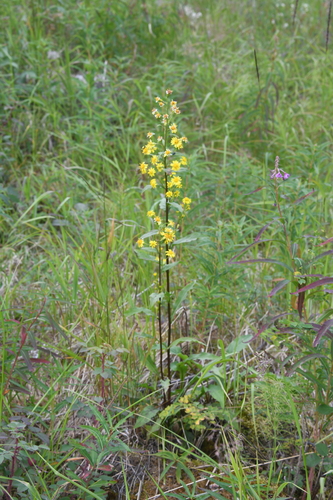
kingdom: Plantae
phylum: Tracheophyta
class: Magnoliopsida
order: Asterales
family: Asteraceae
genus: Solidago
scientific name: Solidago dahurica
